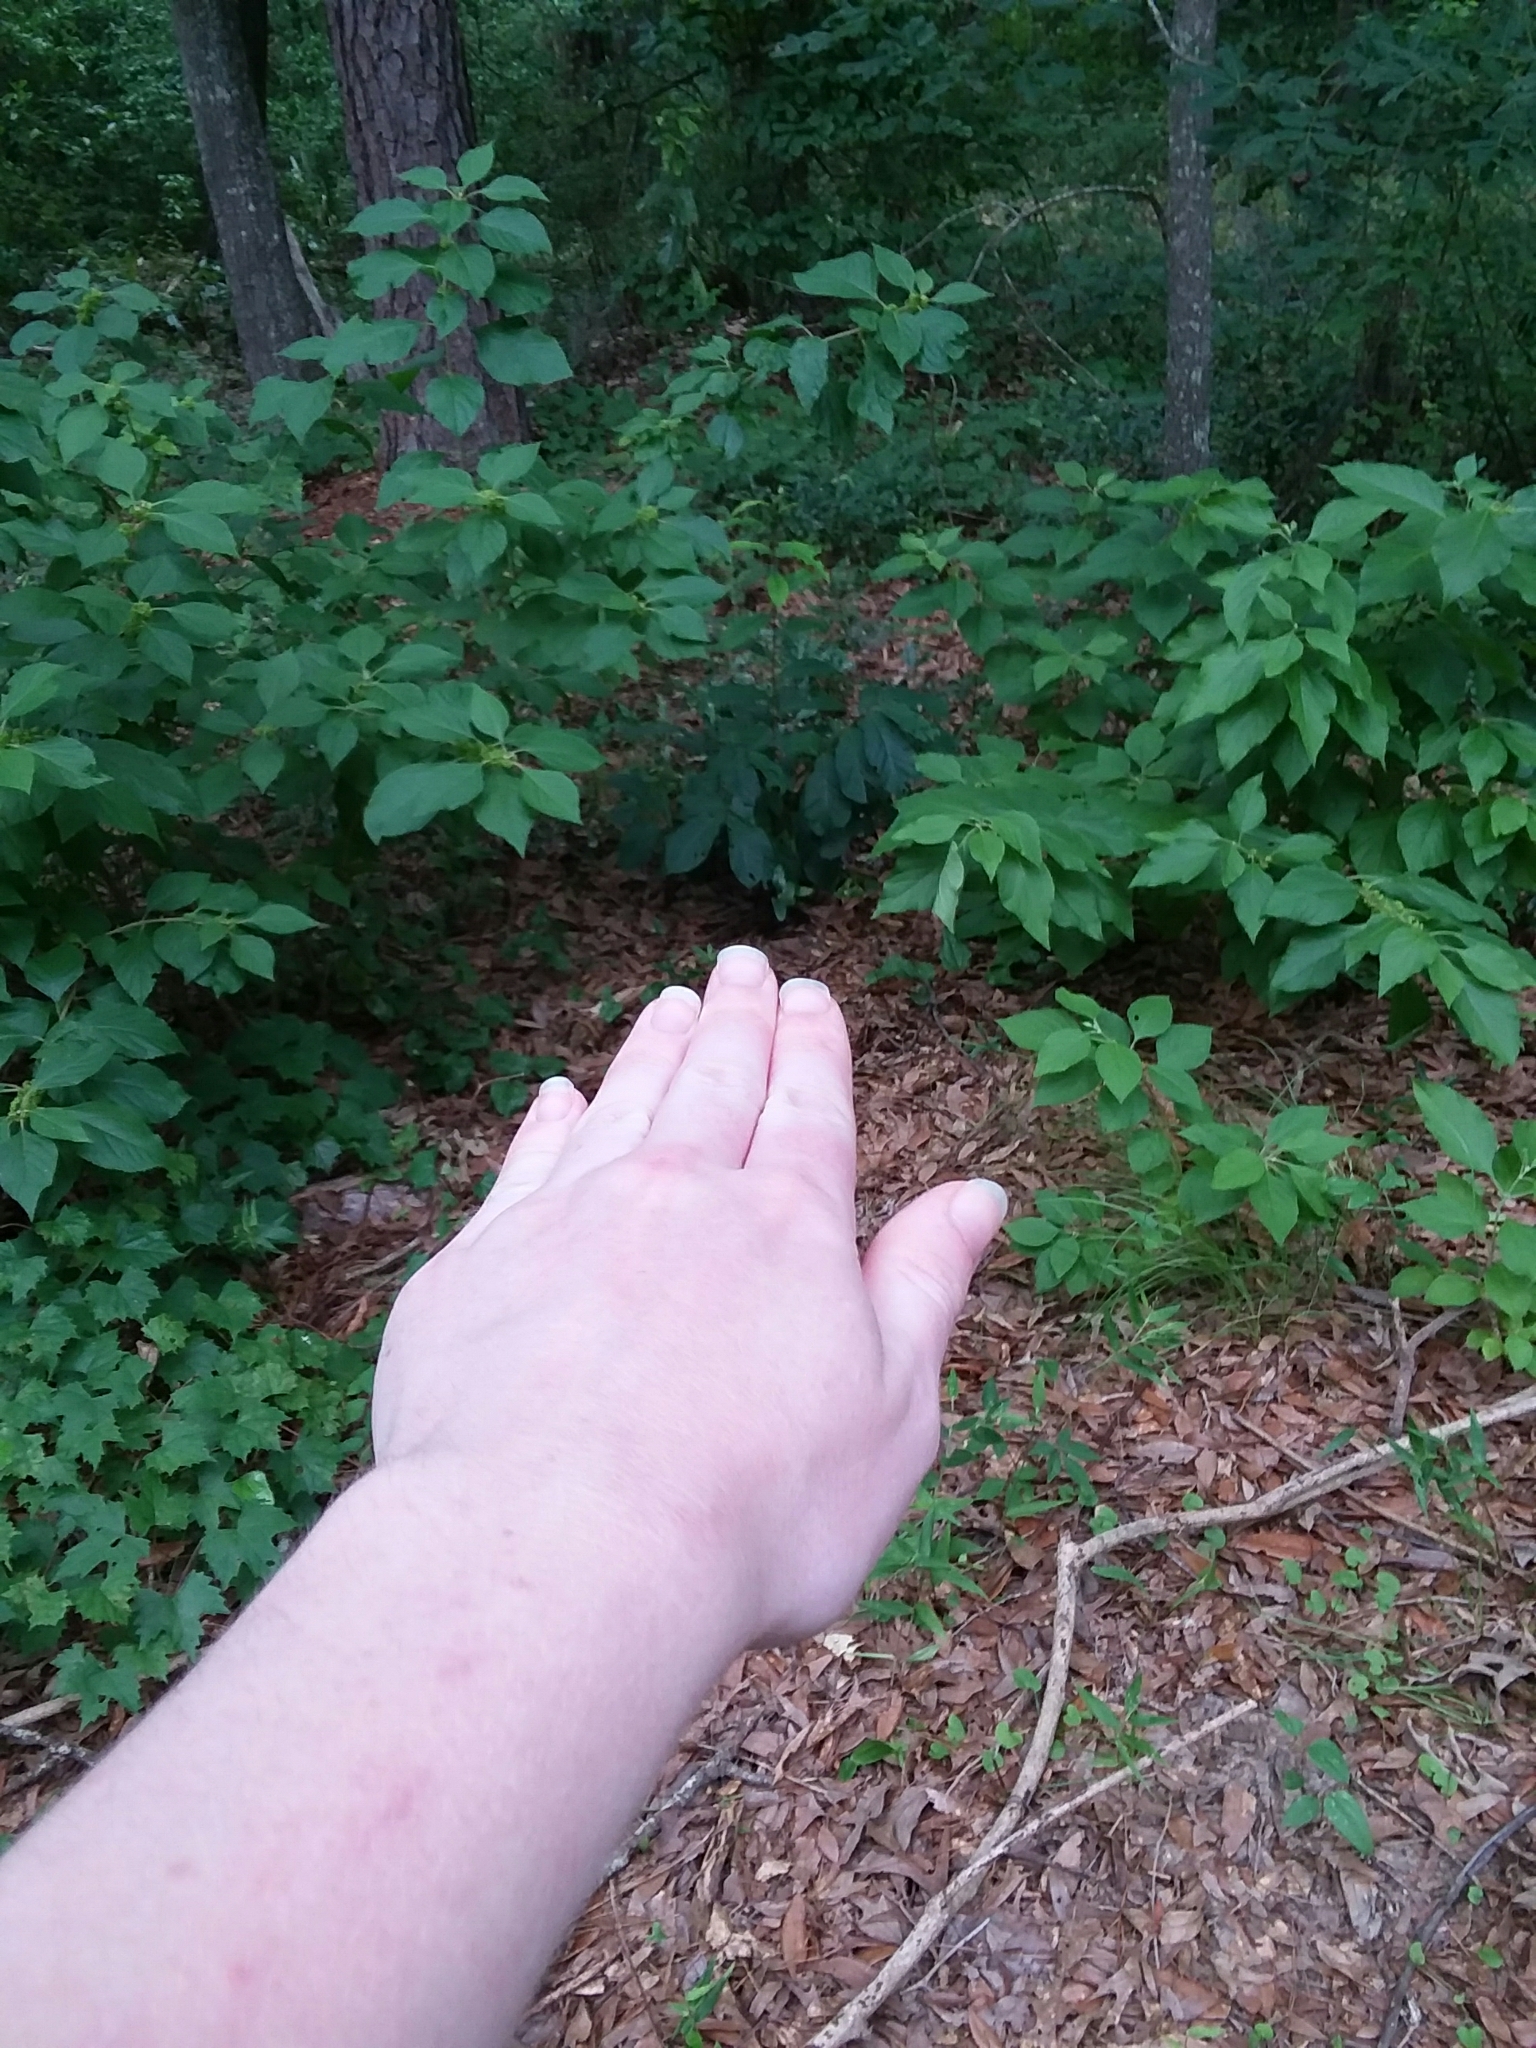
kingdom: Plantae
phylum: Tracheophyta
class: Magnoliopsida
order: Magnoliales
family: Annonaceae
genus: Asimina
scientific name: Asimina parviflora
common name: Dwarf pawpaw
